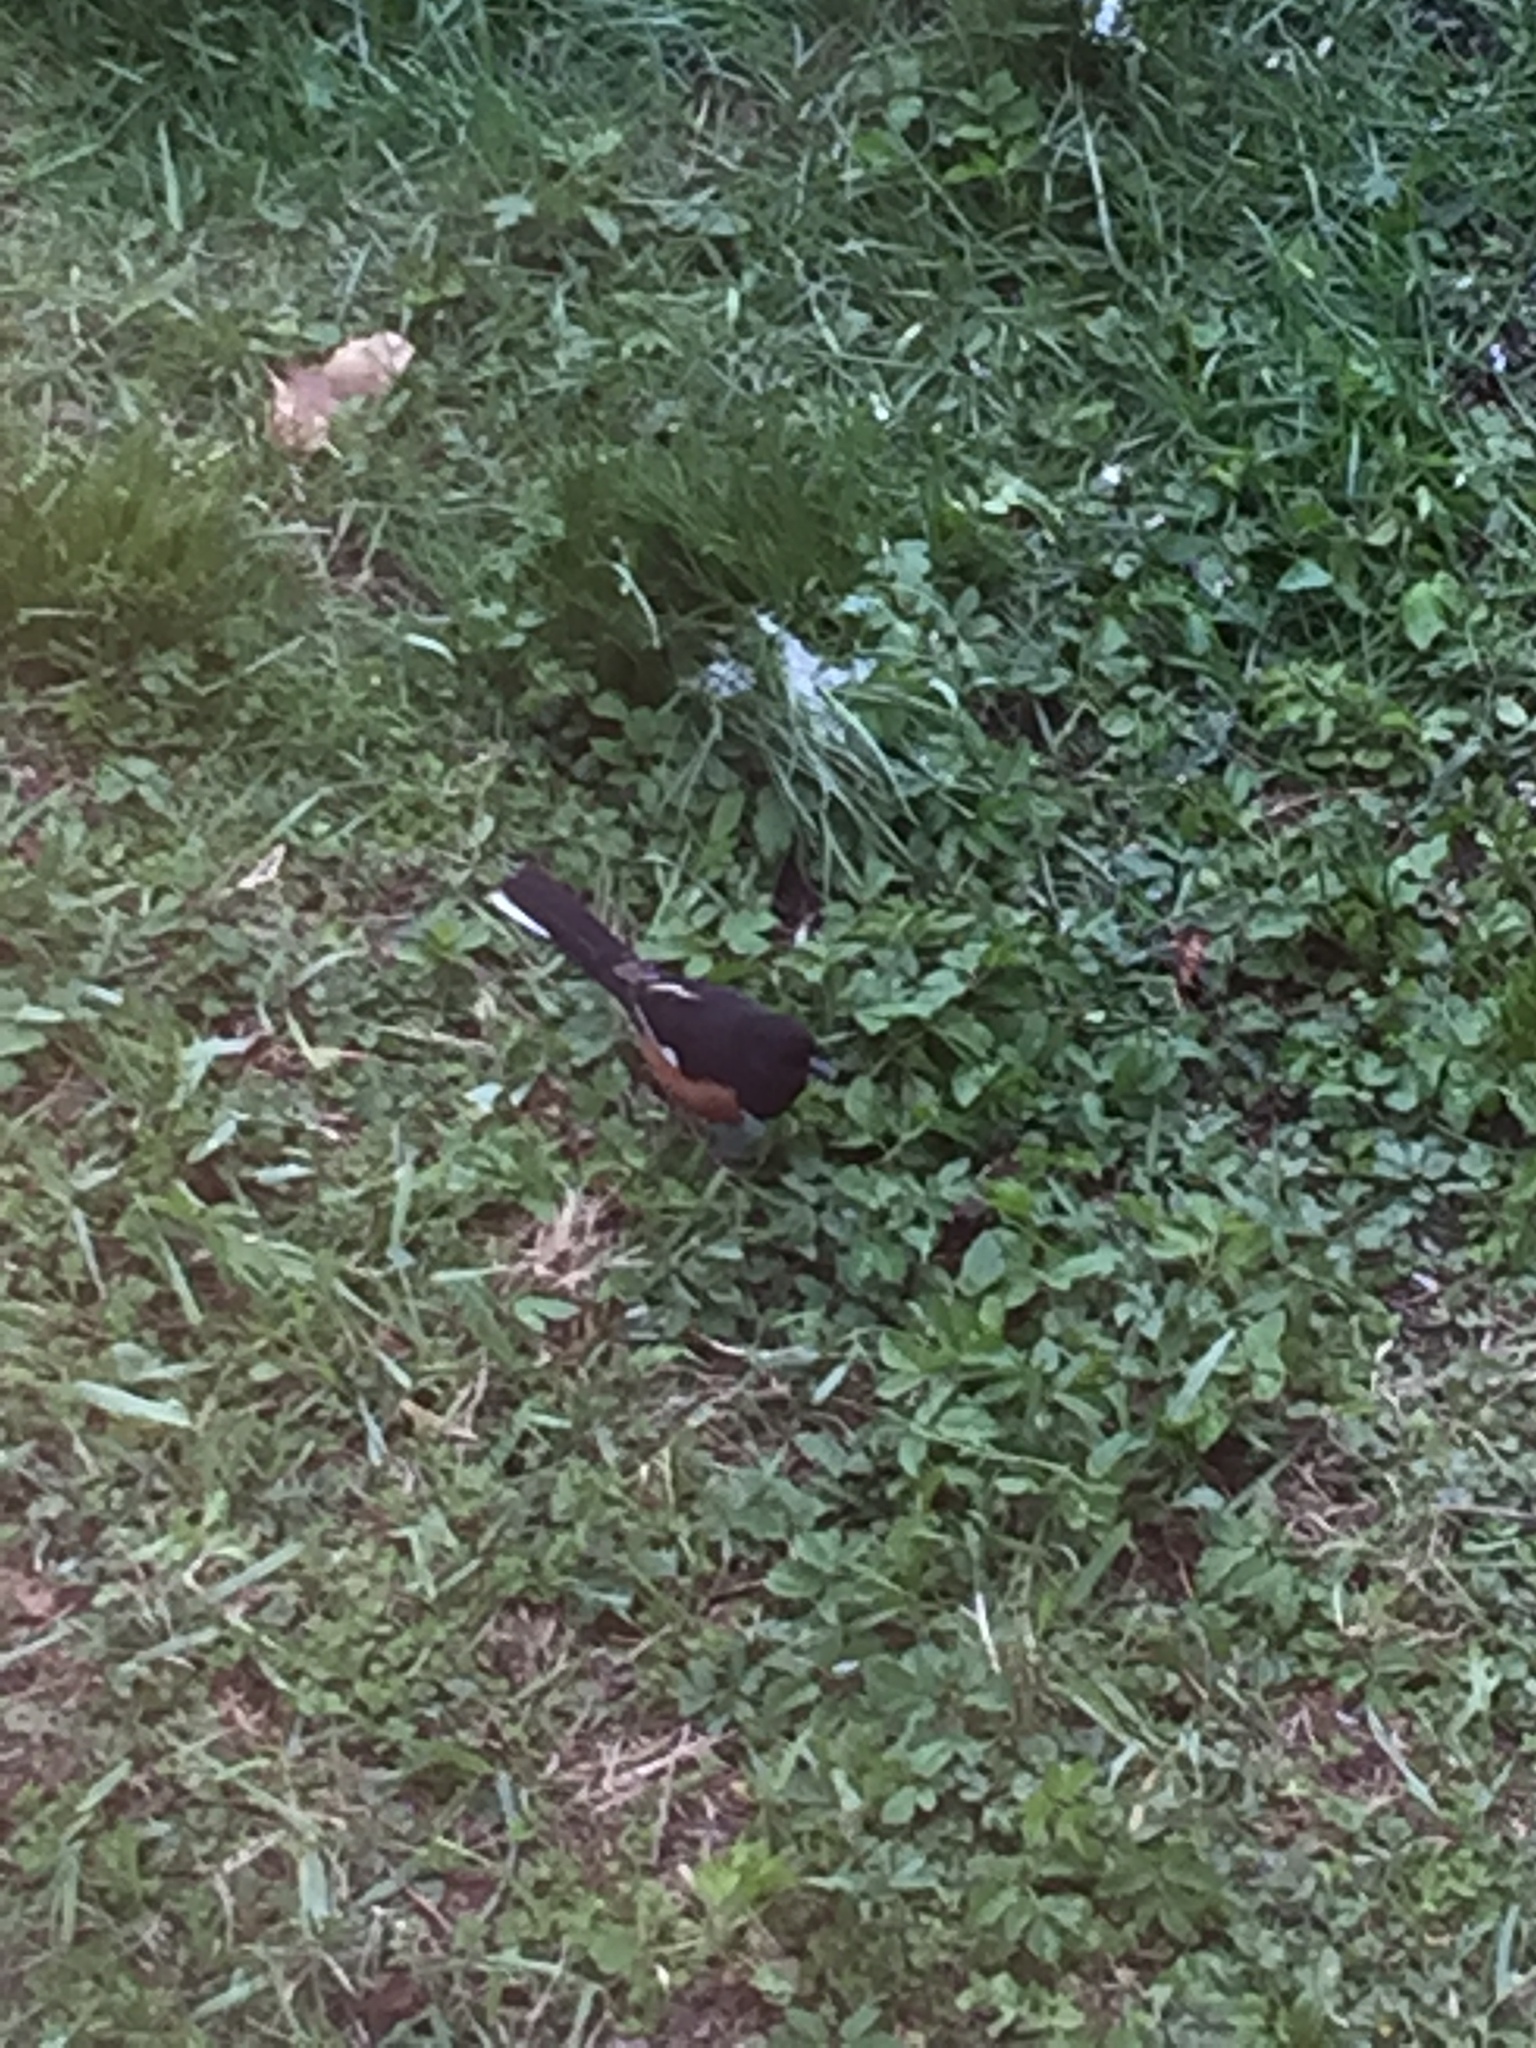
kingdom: Animalia
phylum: Chordata
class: Aves
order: Passeriformes
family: Passerellidae
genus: Pipilo
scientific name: Pipilo erythrophthalmus
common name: Eastern towhee
